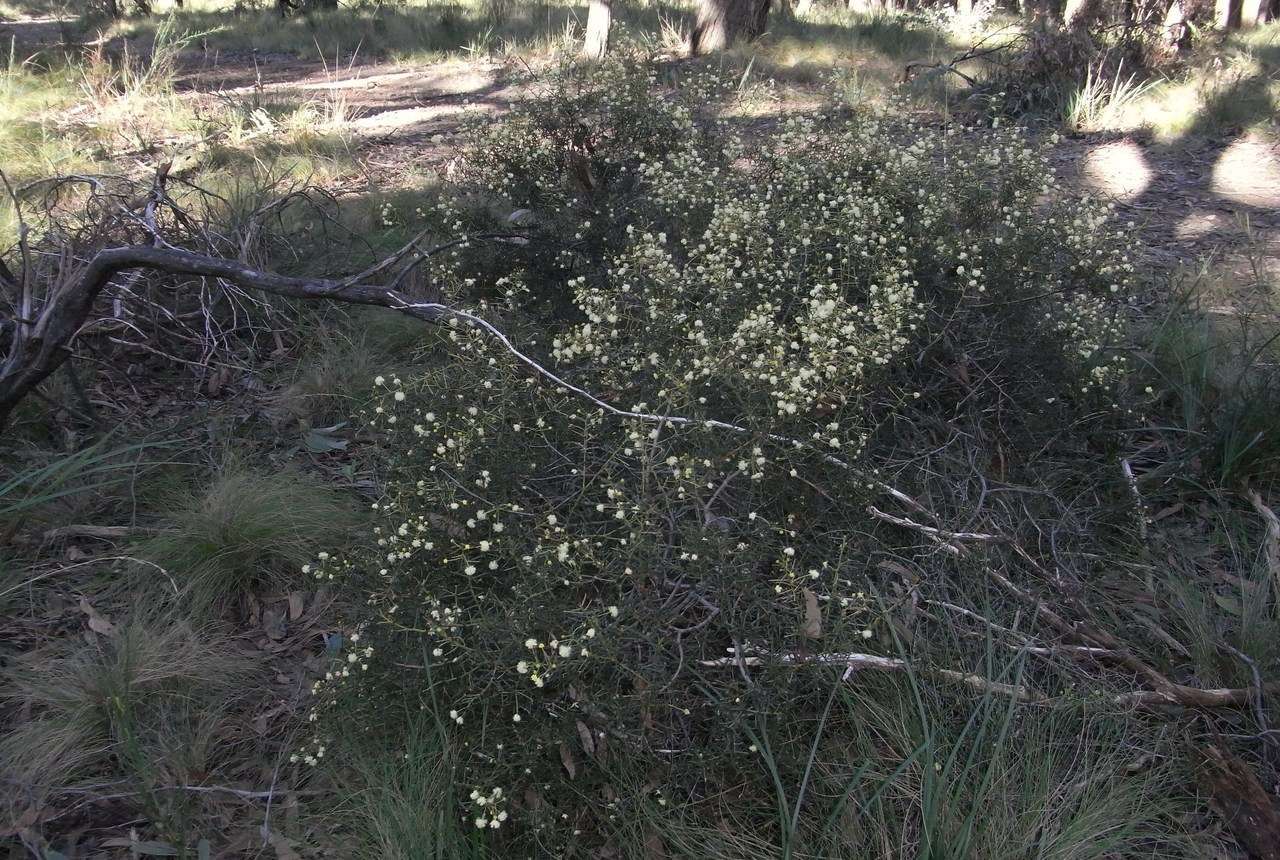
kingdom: Plantae
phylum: Tracheophyta
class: Magnoliopsida
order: Fabales
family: Fabaceae
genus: Acacia
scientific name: Acacia genistifolia
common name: Early wattle
